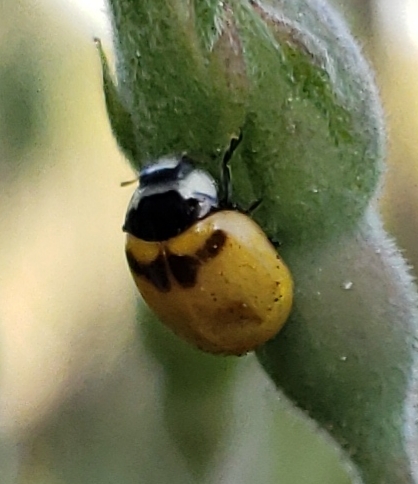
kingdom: Animalia
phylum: Arthropoda
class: Insecta
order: Coleoptera
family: Coccinellidae
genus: Coccinella
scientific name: Coccinella trifasciata
